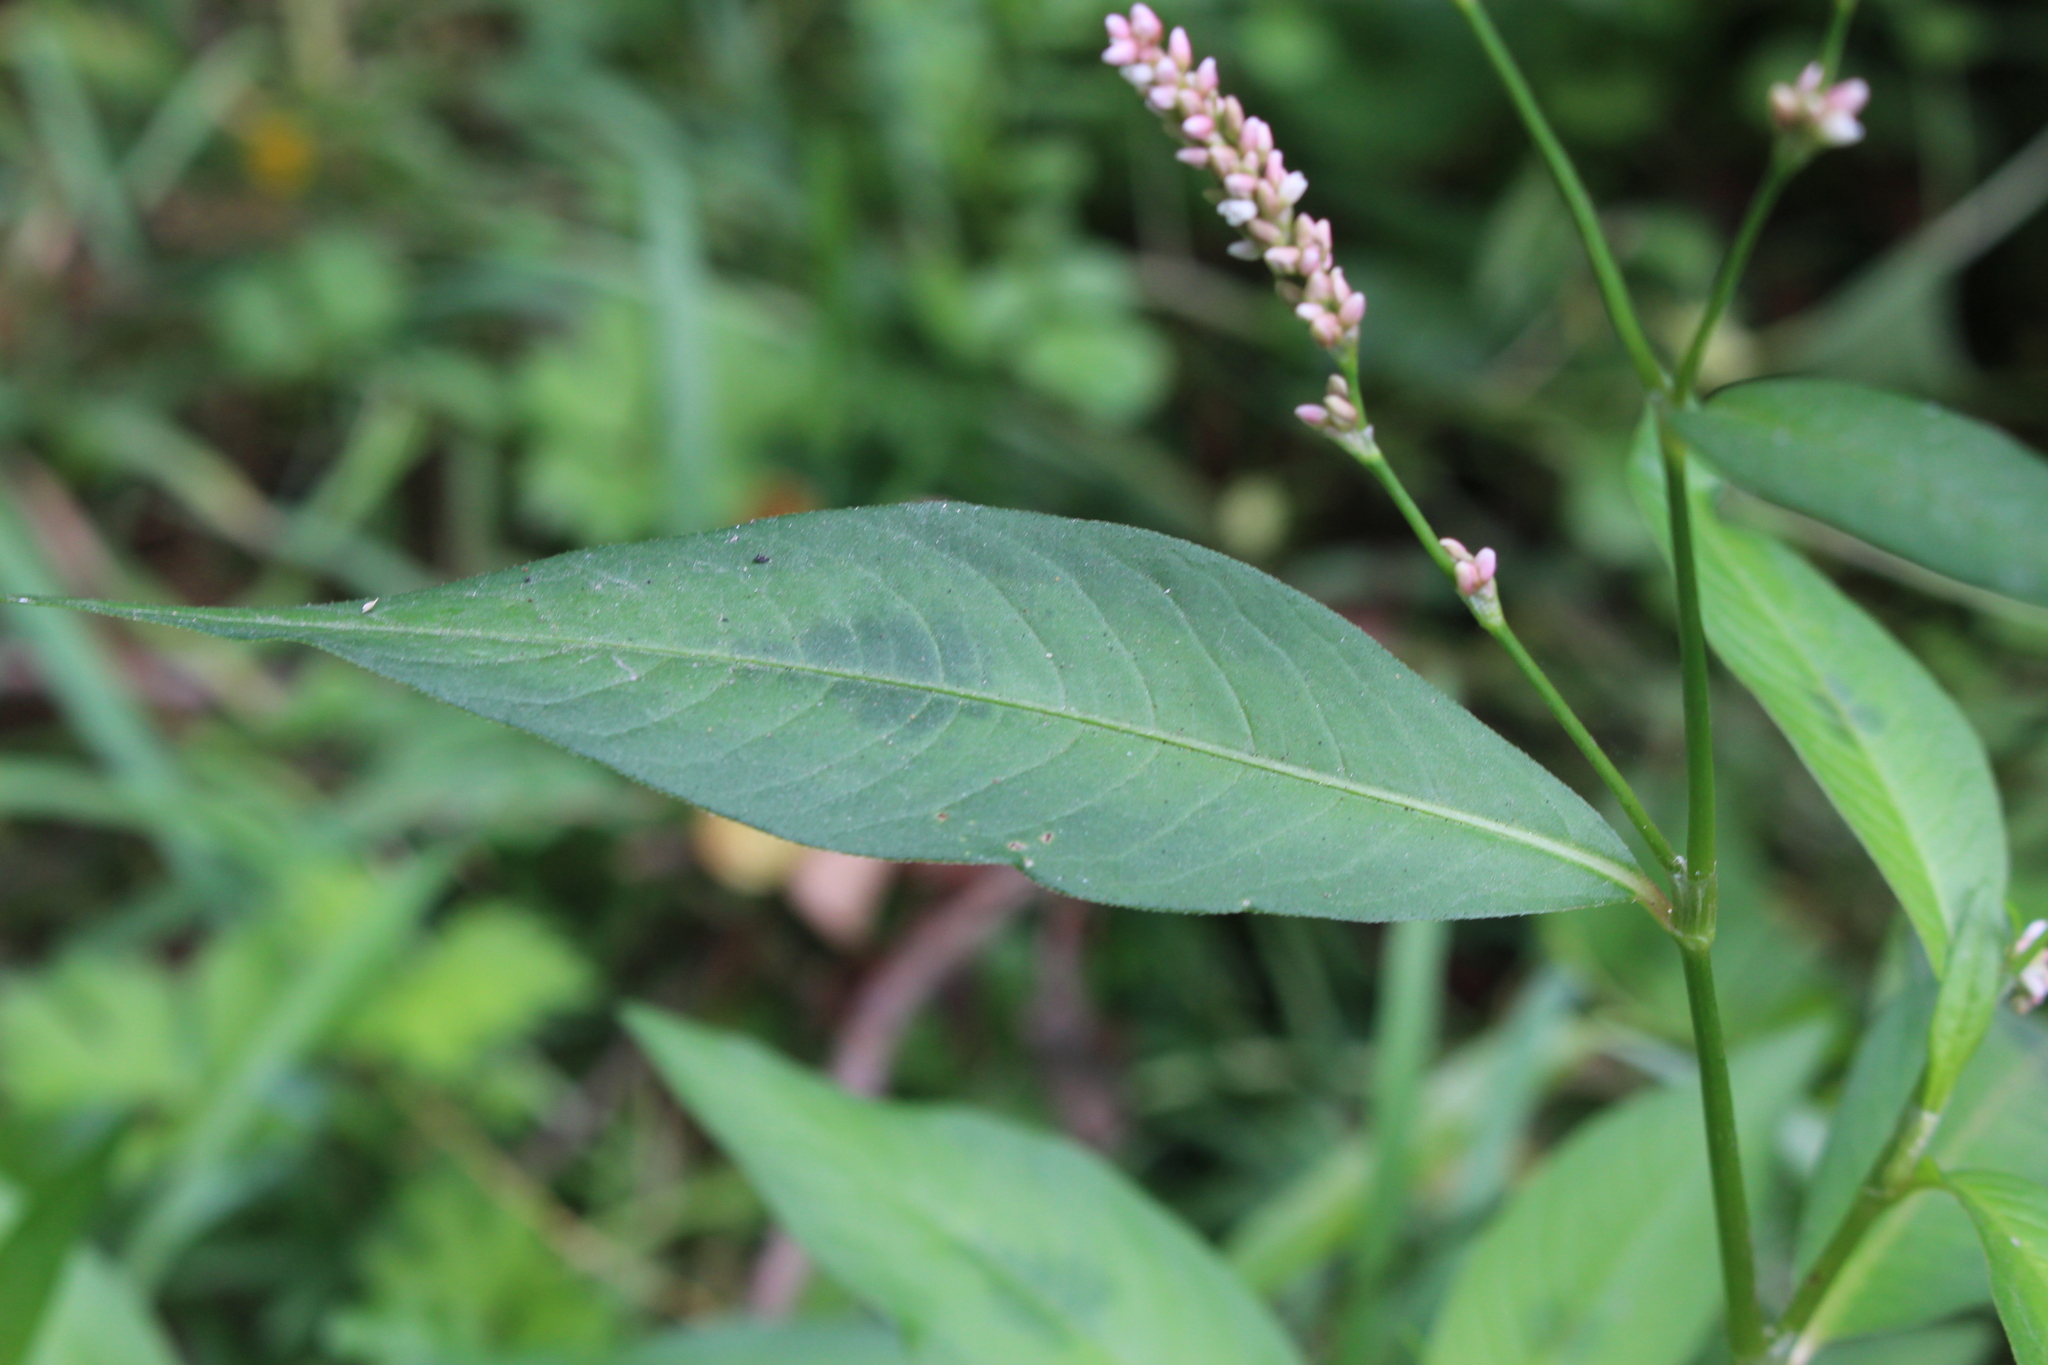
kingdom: Plantae
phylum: Tracheophyta
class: Magnoliopsida
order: Caryophyllales
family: Polygonaceae
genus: Persicaria
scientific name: Persicaria maculosa
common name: Redshank
